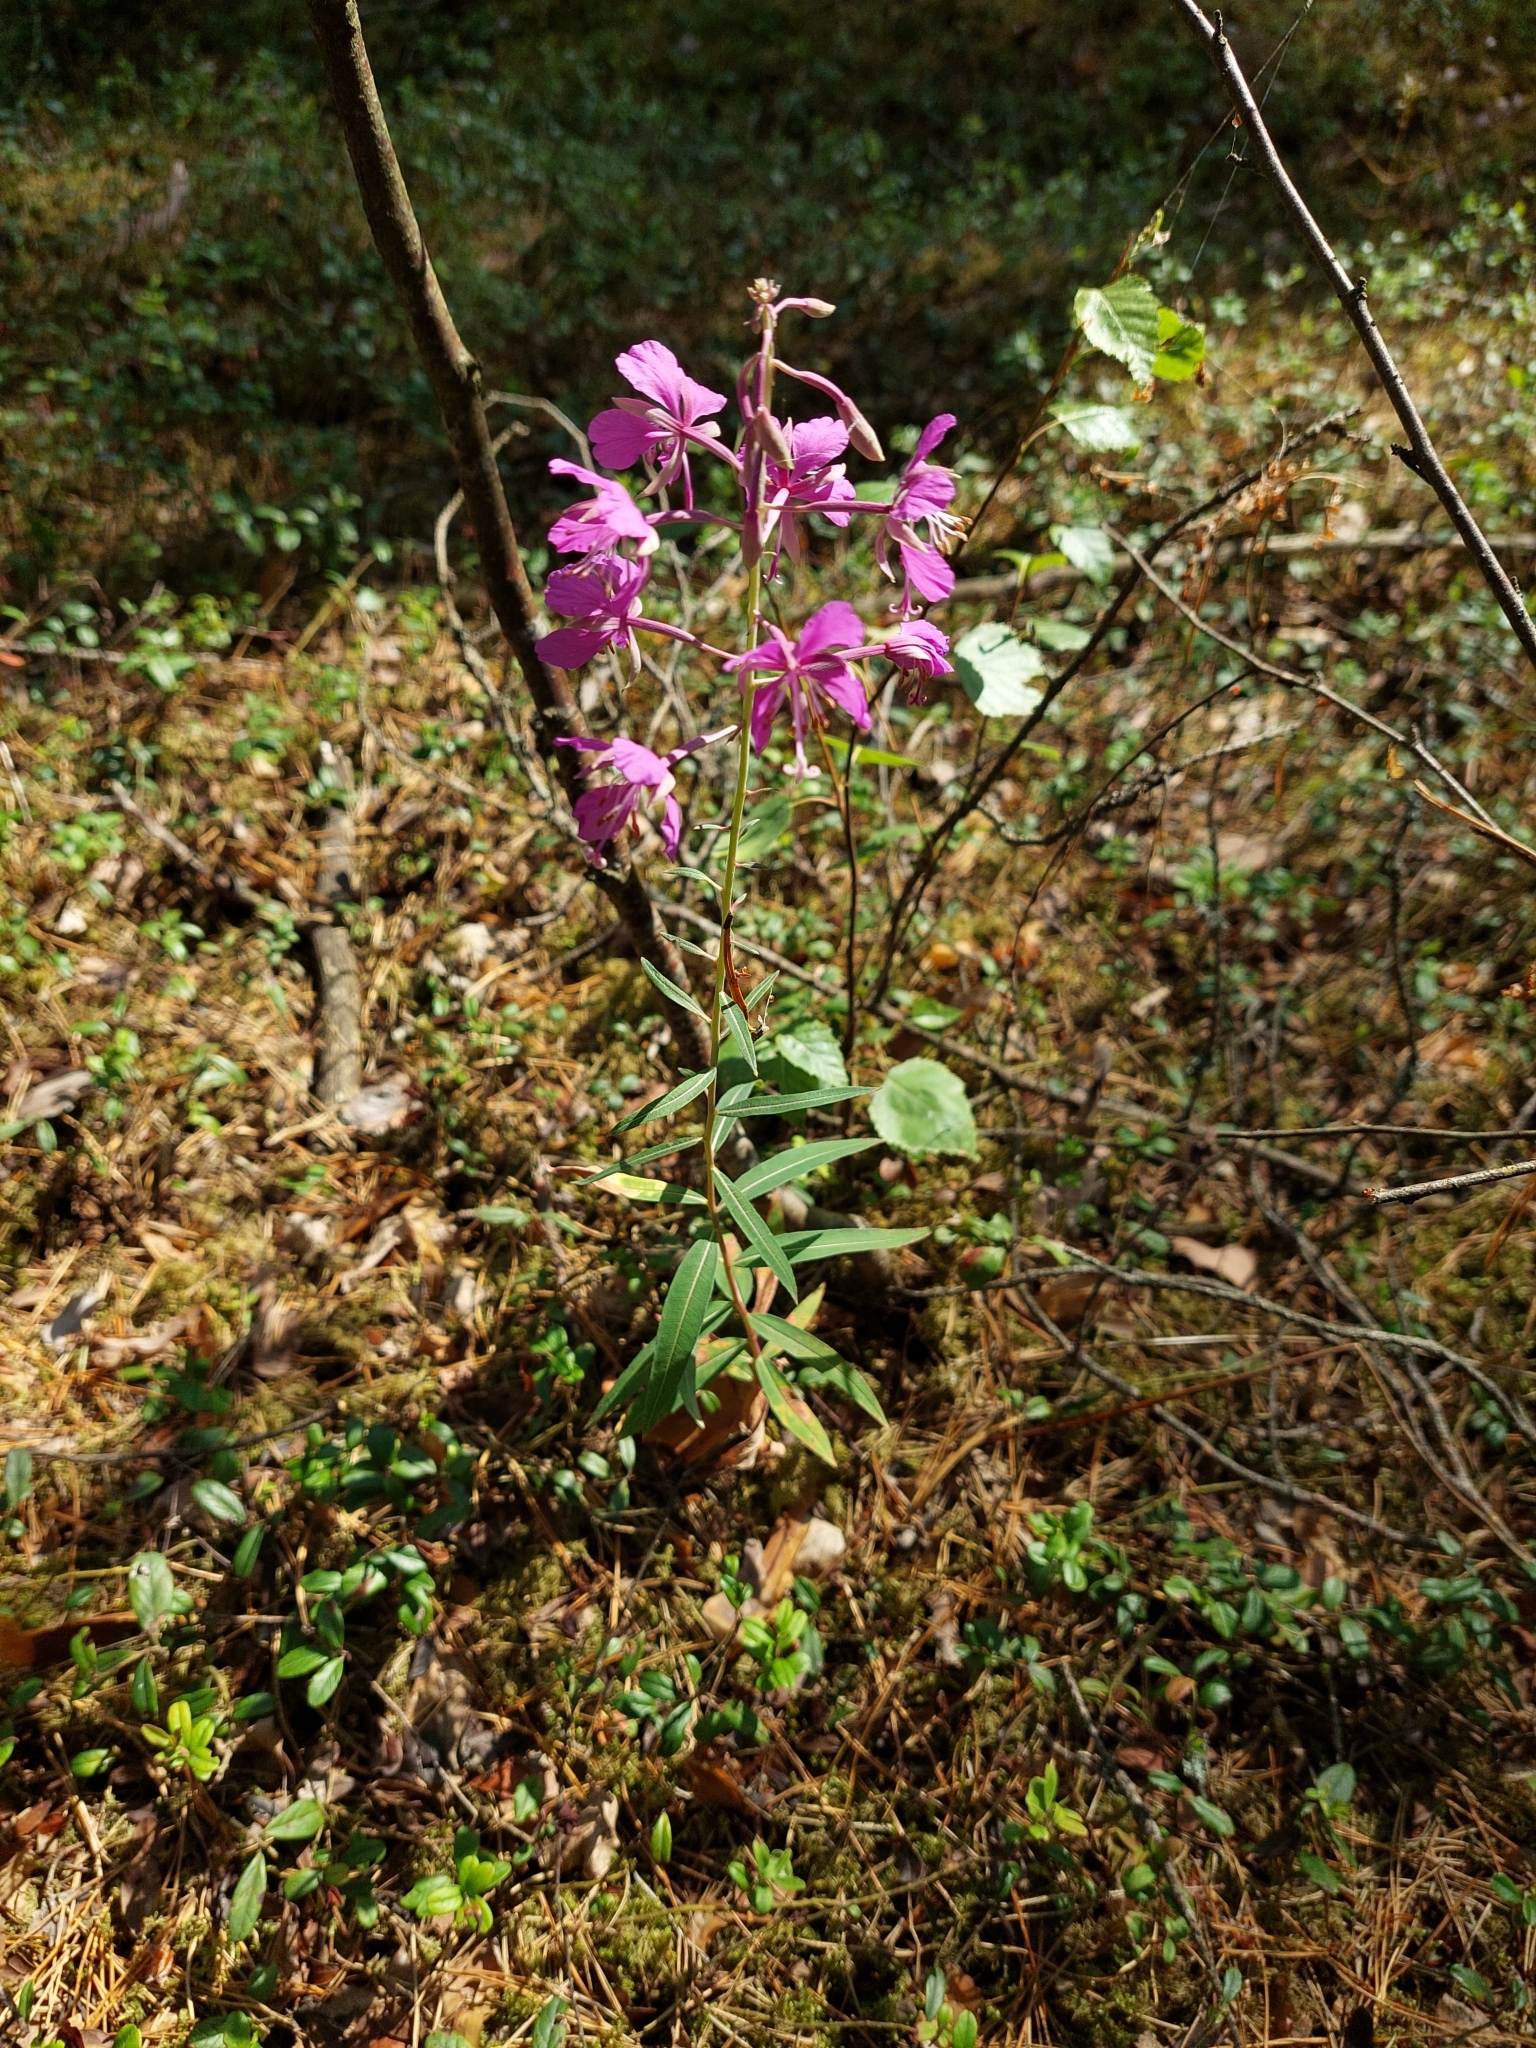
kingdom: Plantae
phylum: Tracheophyta
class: Magnoliopsida
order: Myrtales
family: Onagraceae
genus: Chamaenerion
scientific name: Chamaenerion angustifolium
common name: Fireweed
